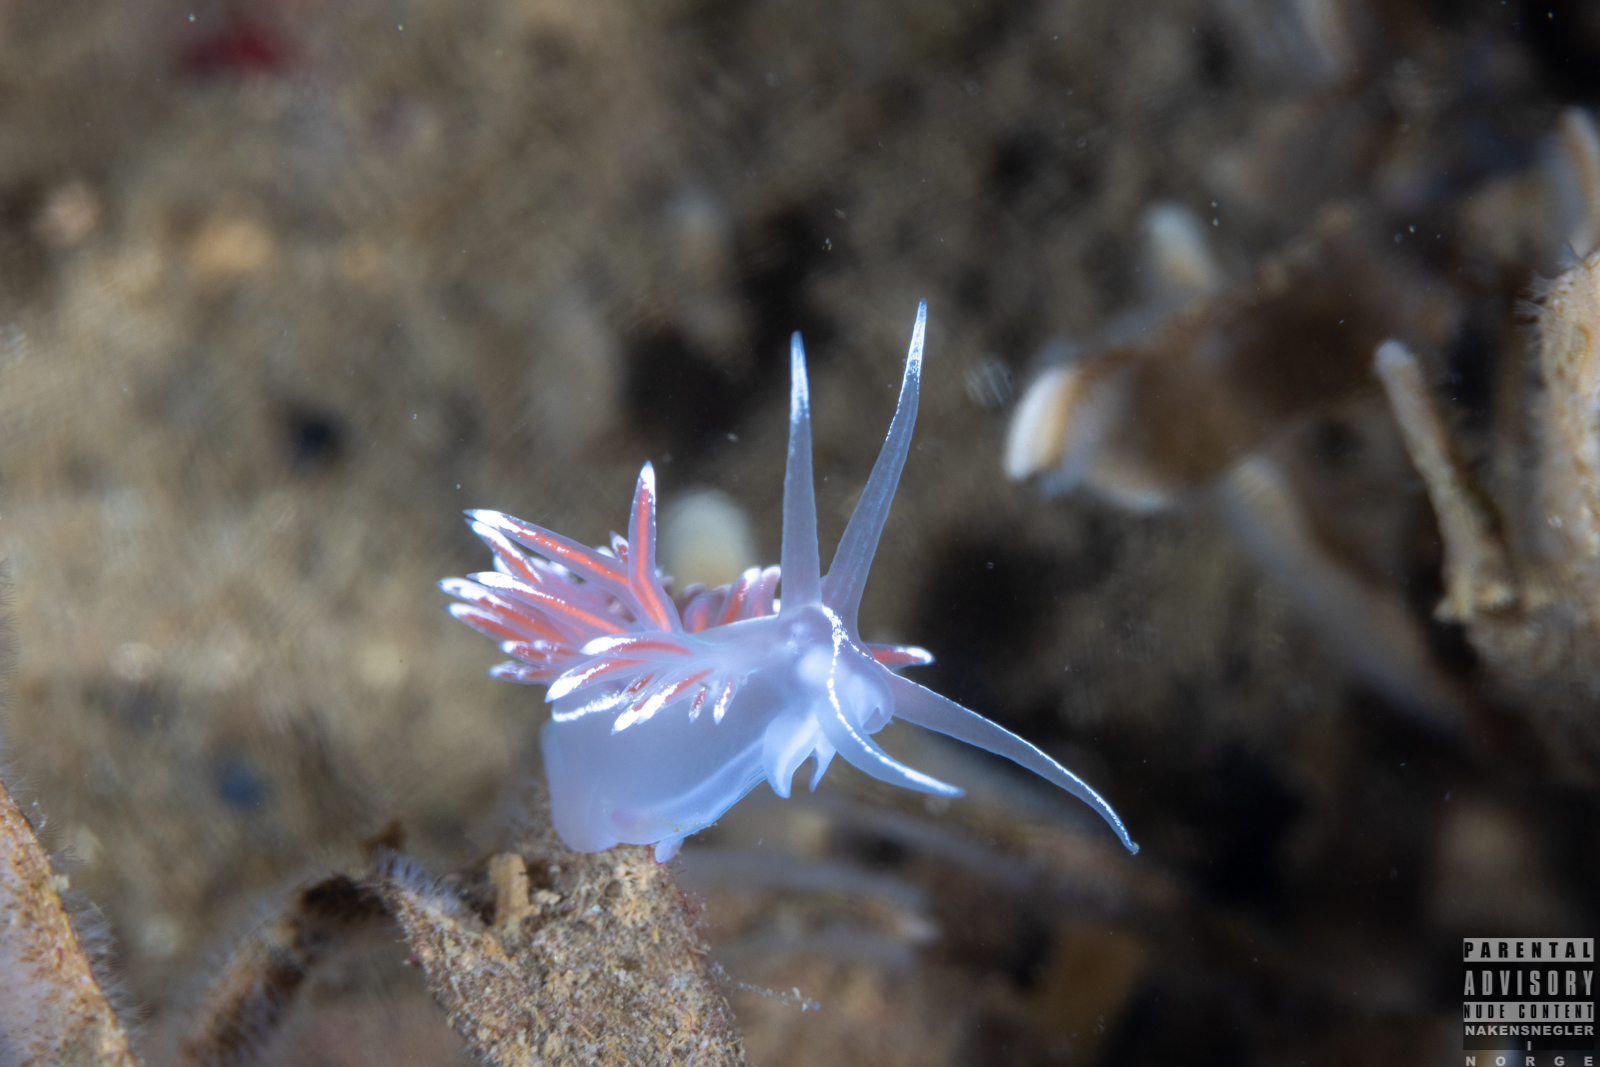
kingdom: Animalia
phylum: Mollusca
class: Gastropoda
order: Nudibranchia
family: Coryphellidae
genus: Coryphella
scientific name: Coryphella lineata
